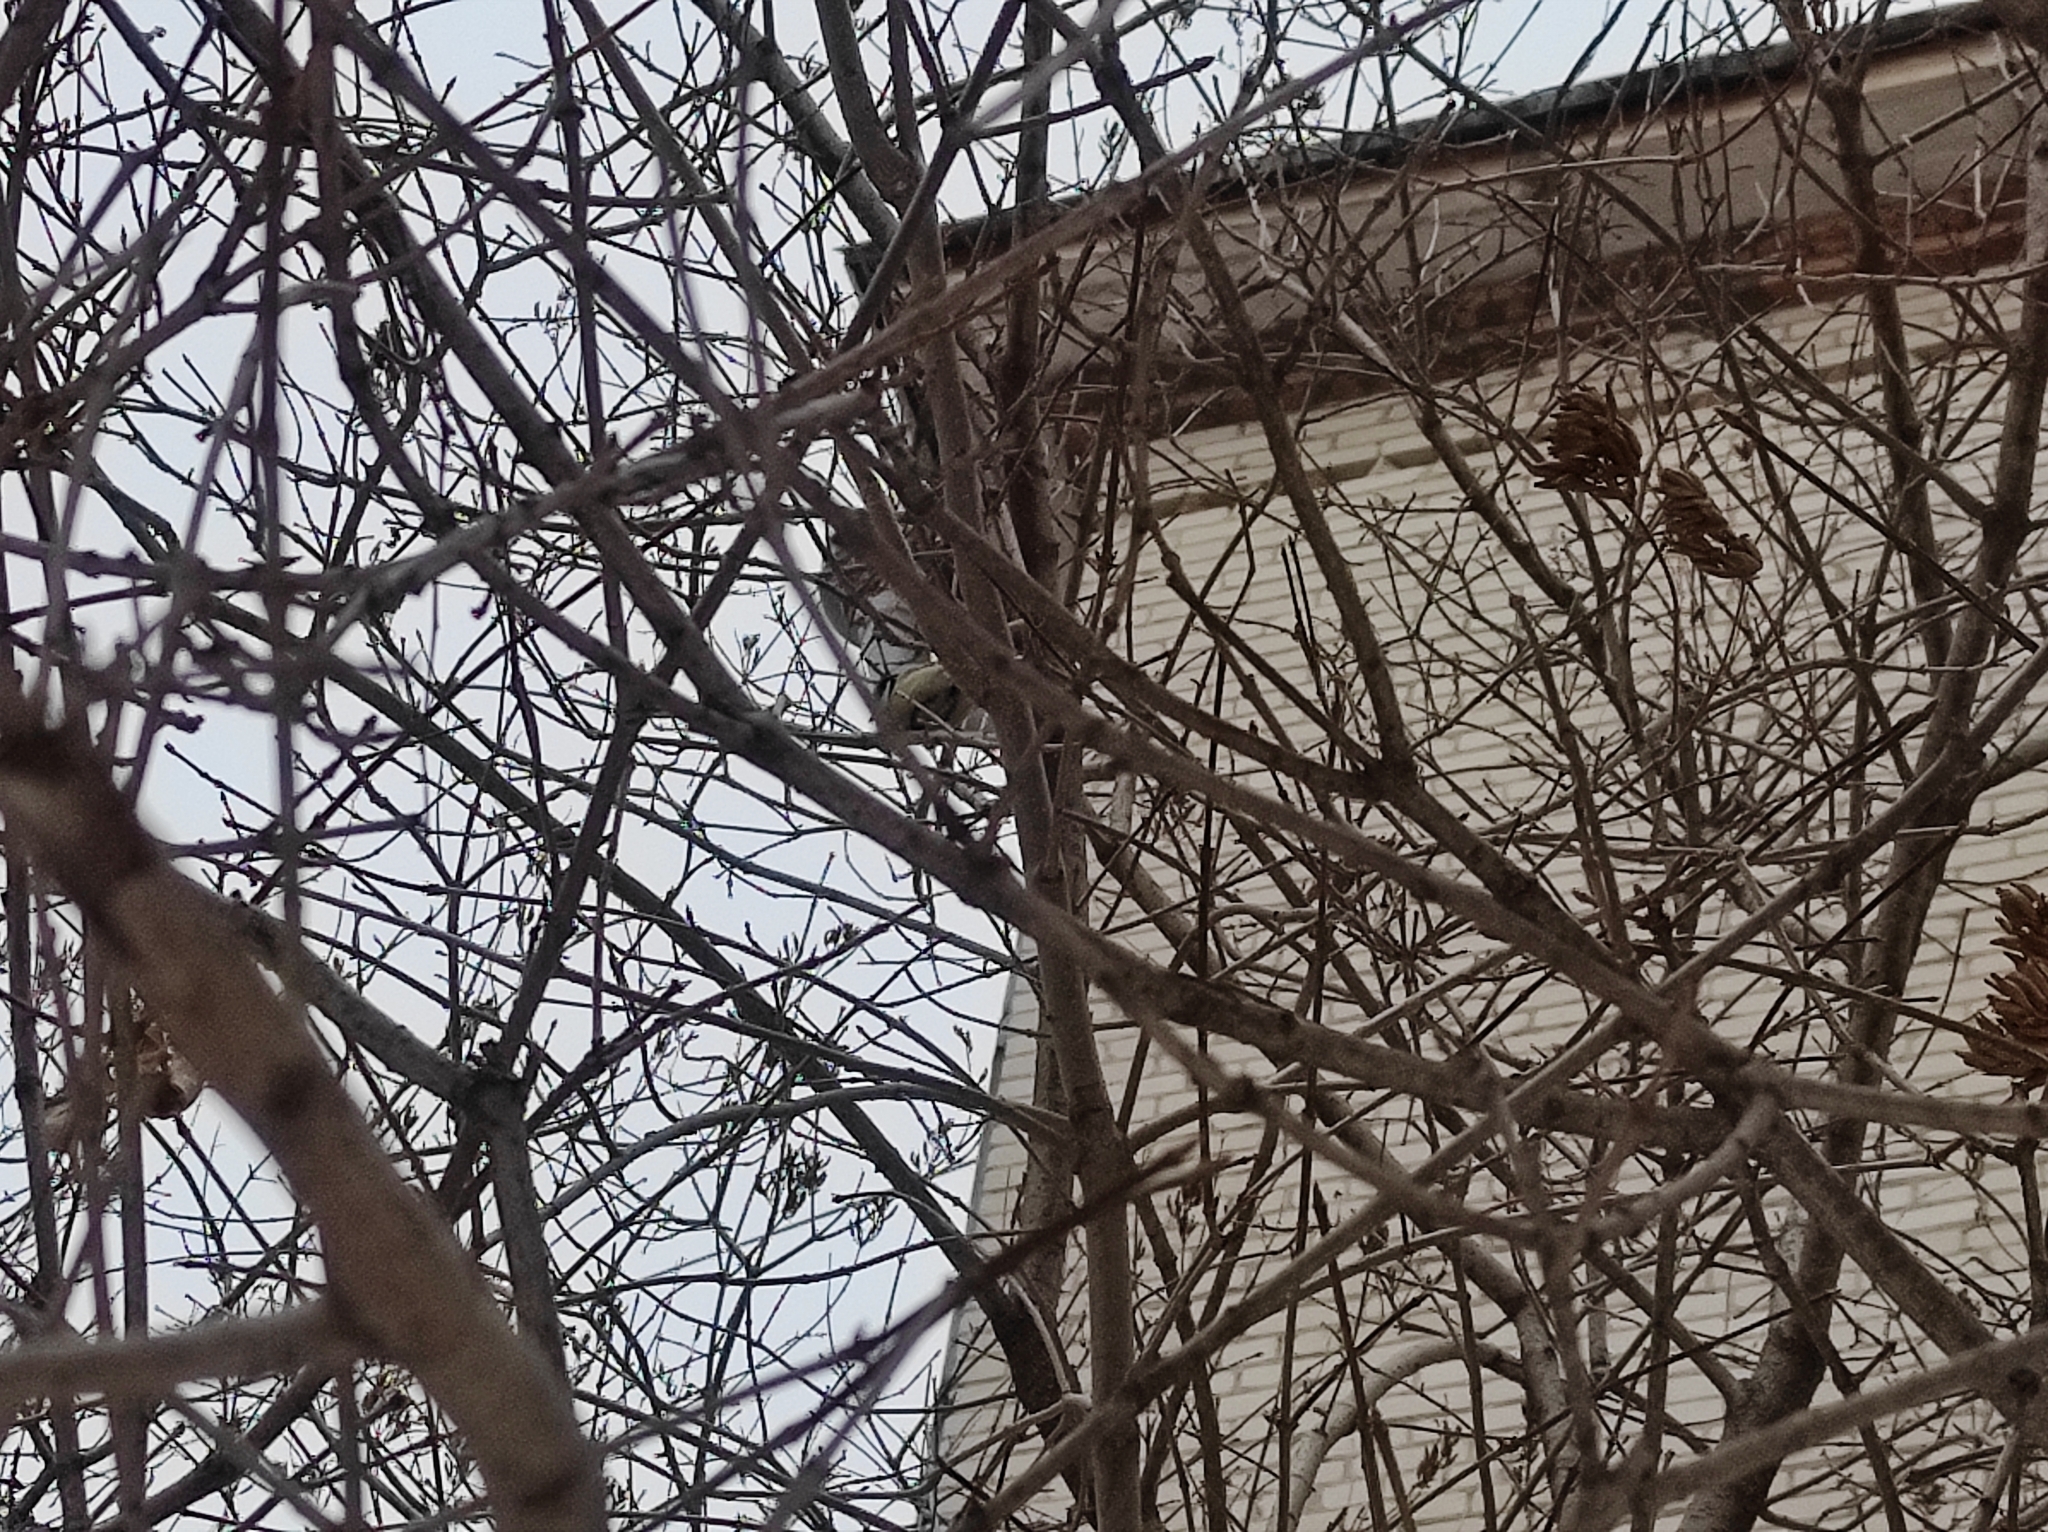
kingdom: Animalia
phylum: Chordata
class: Aves
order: Passeriformes
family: Paridae
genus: Parus
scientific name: Parus major
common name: Great tit
